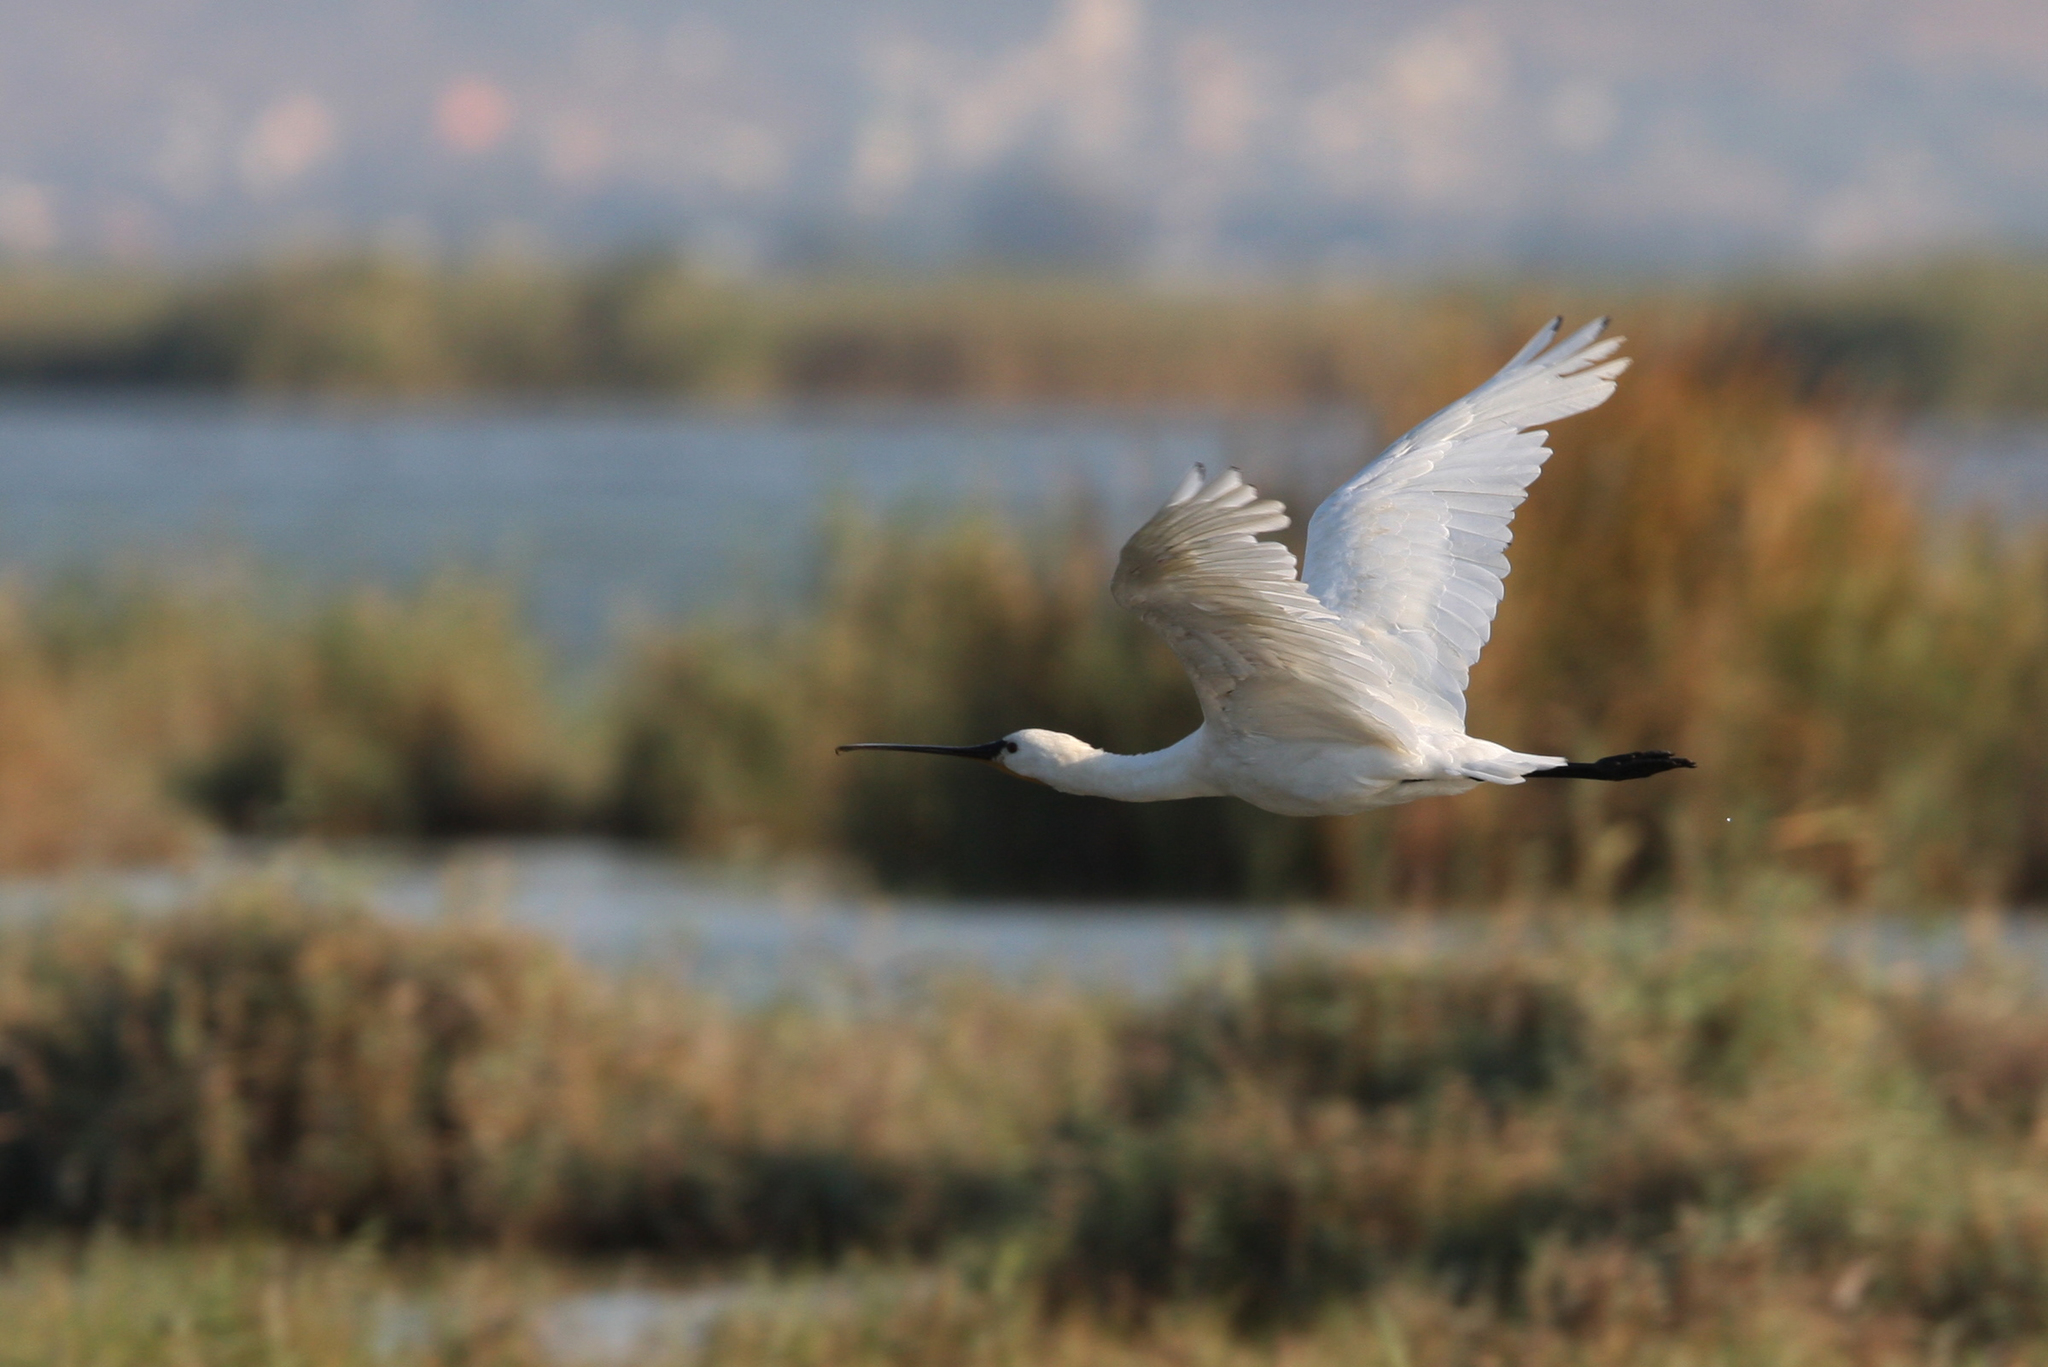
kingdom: Animalia
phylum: Chordata
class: Aves
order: Pelecaniformes
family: Threskiornithidae
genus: Platalea
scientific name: Platalea leucorodia
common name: Eurasian spoonbill
